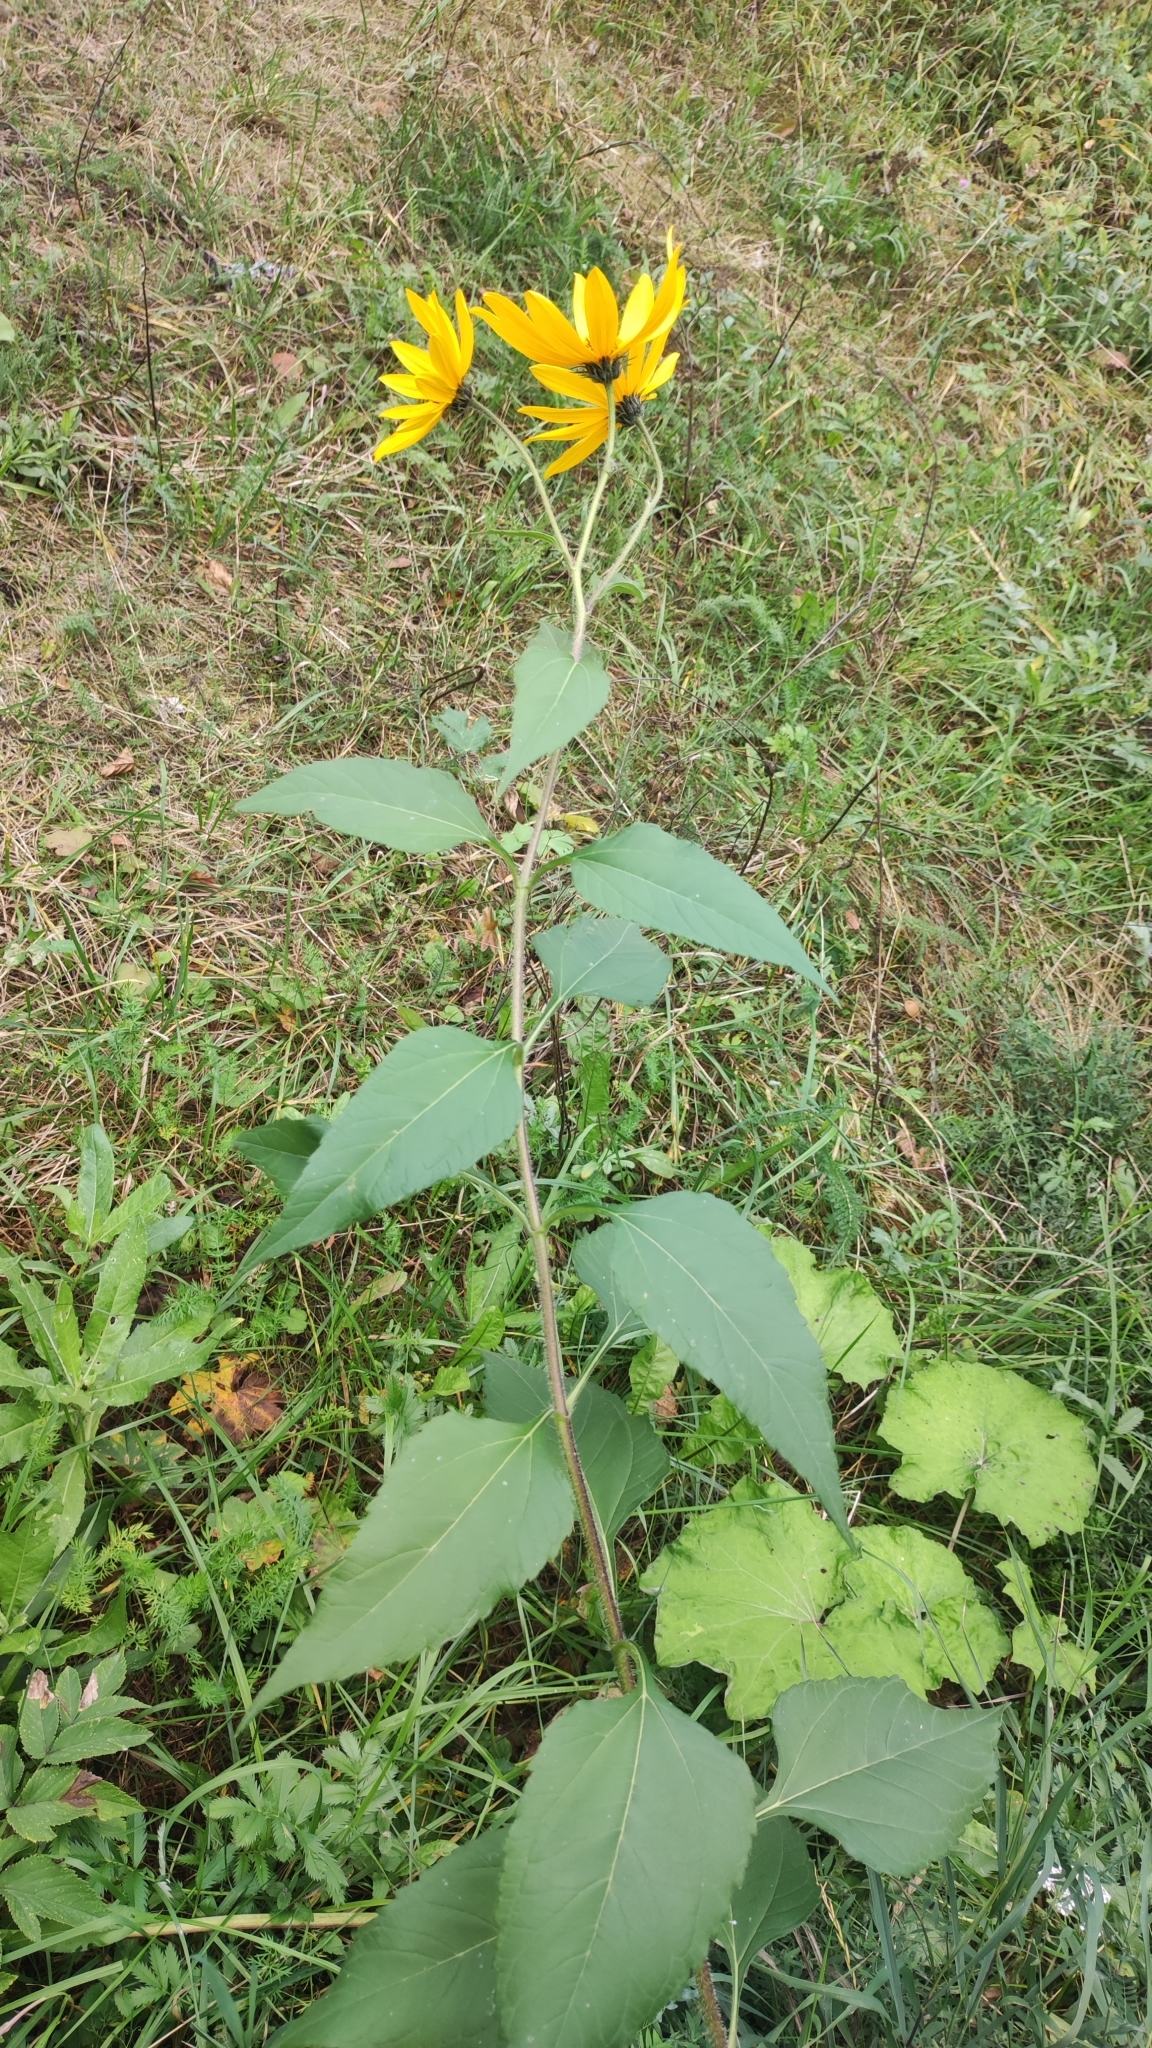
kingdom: Plantae
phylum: Tracheophyta
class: Magnoliopsida
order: Asterales
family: Asteraceae
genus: Helianthus
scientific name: Helianthus tuberosus
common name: Jerusalem artichoke
